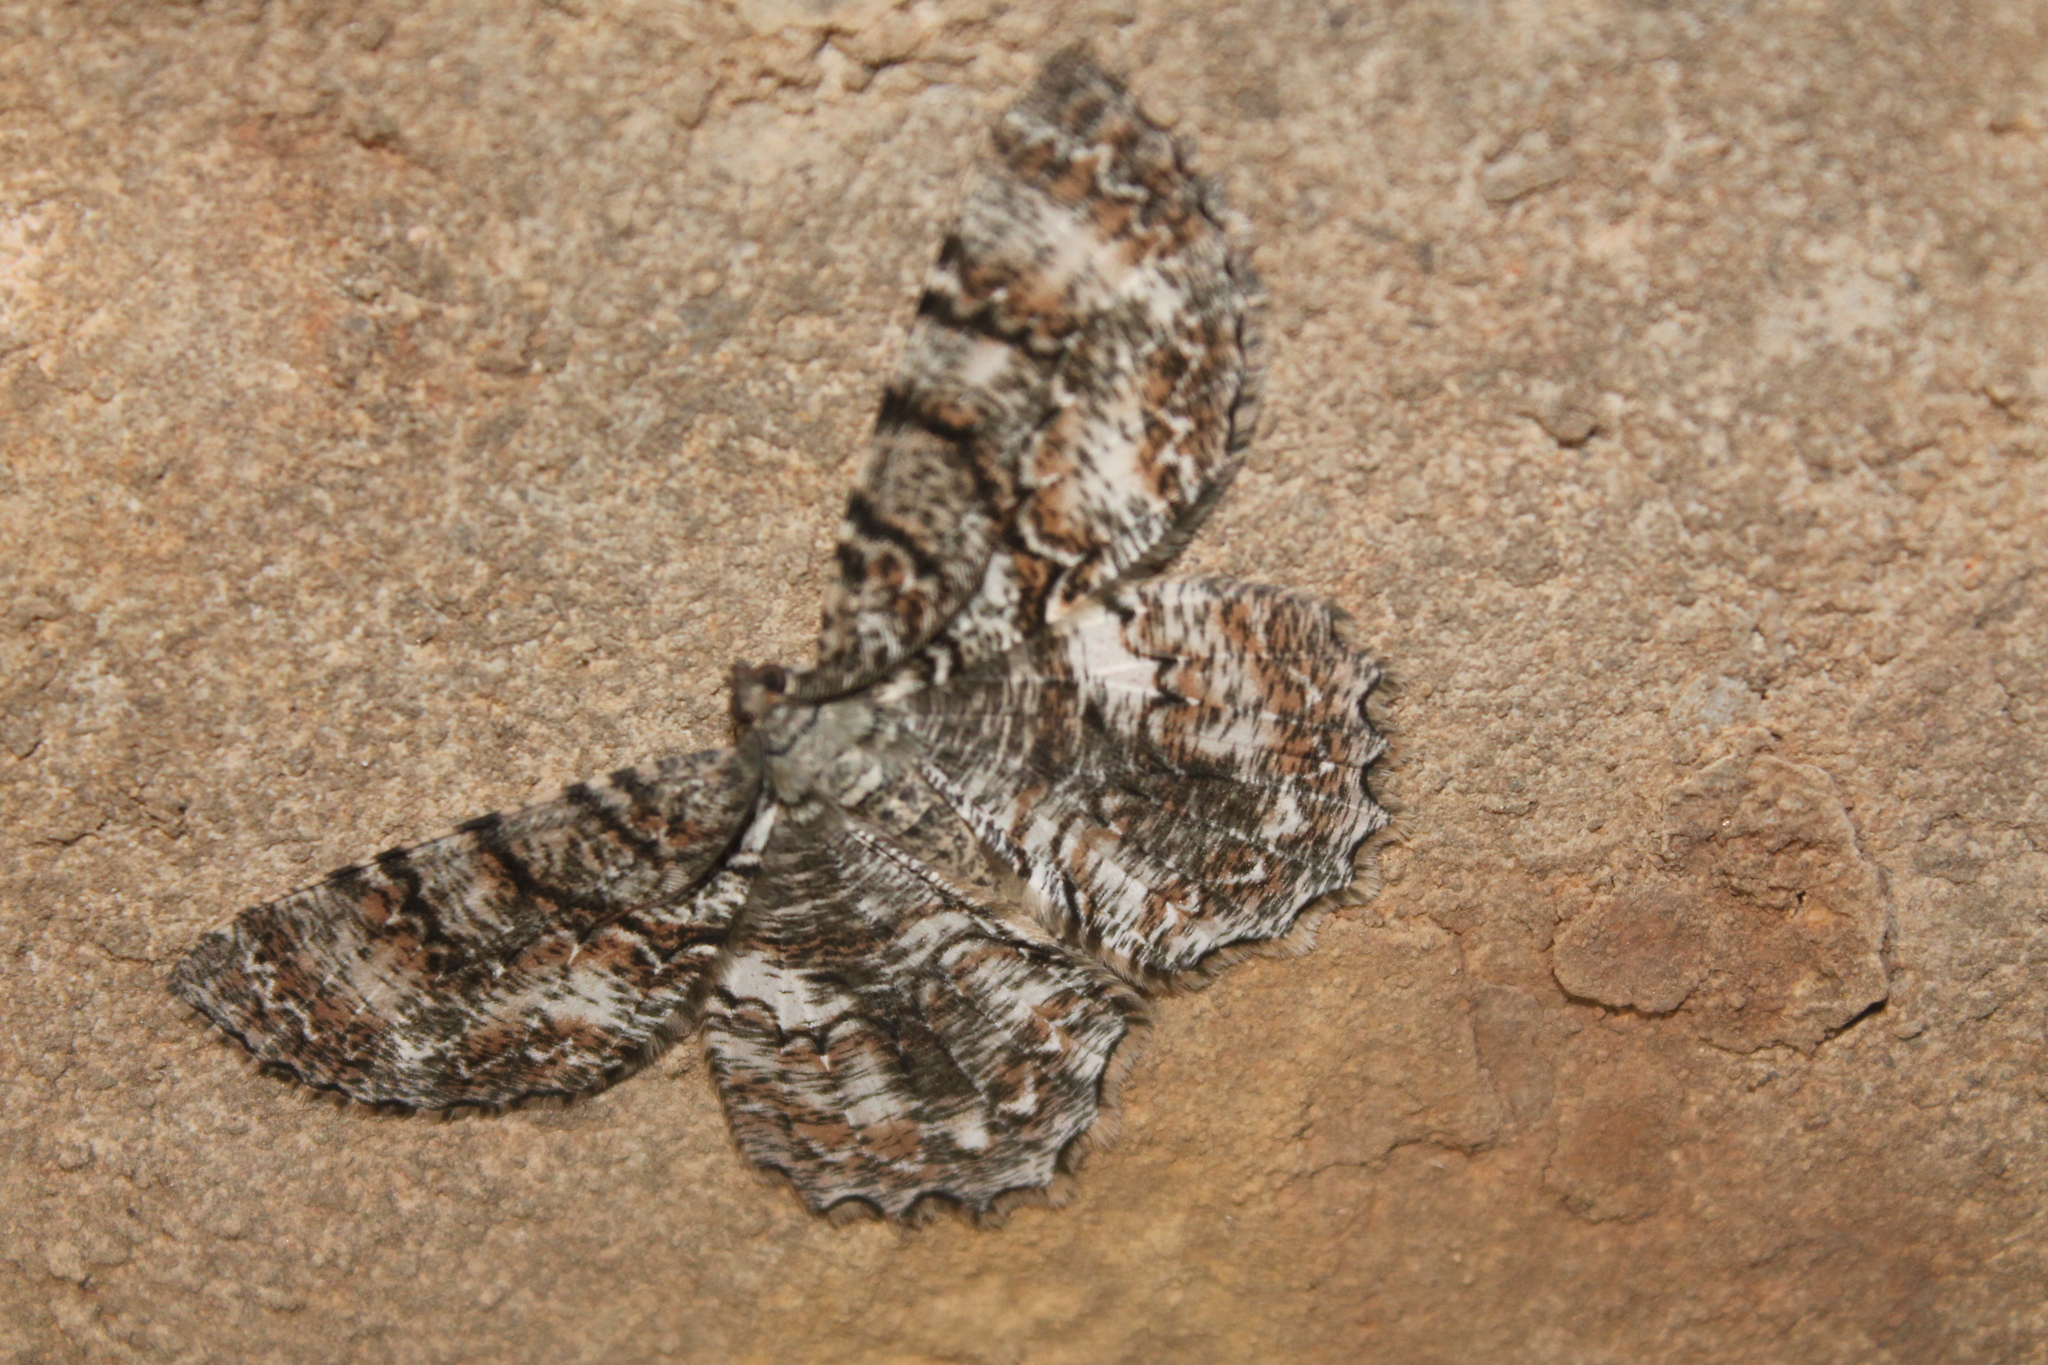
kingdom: Animalia
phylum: Arthropoda
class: Insecta
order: Lepidoptera
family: Geometridae
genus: Epimecis
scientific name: Epimecis hortaria
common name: Tulip-tree beauty
